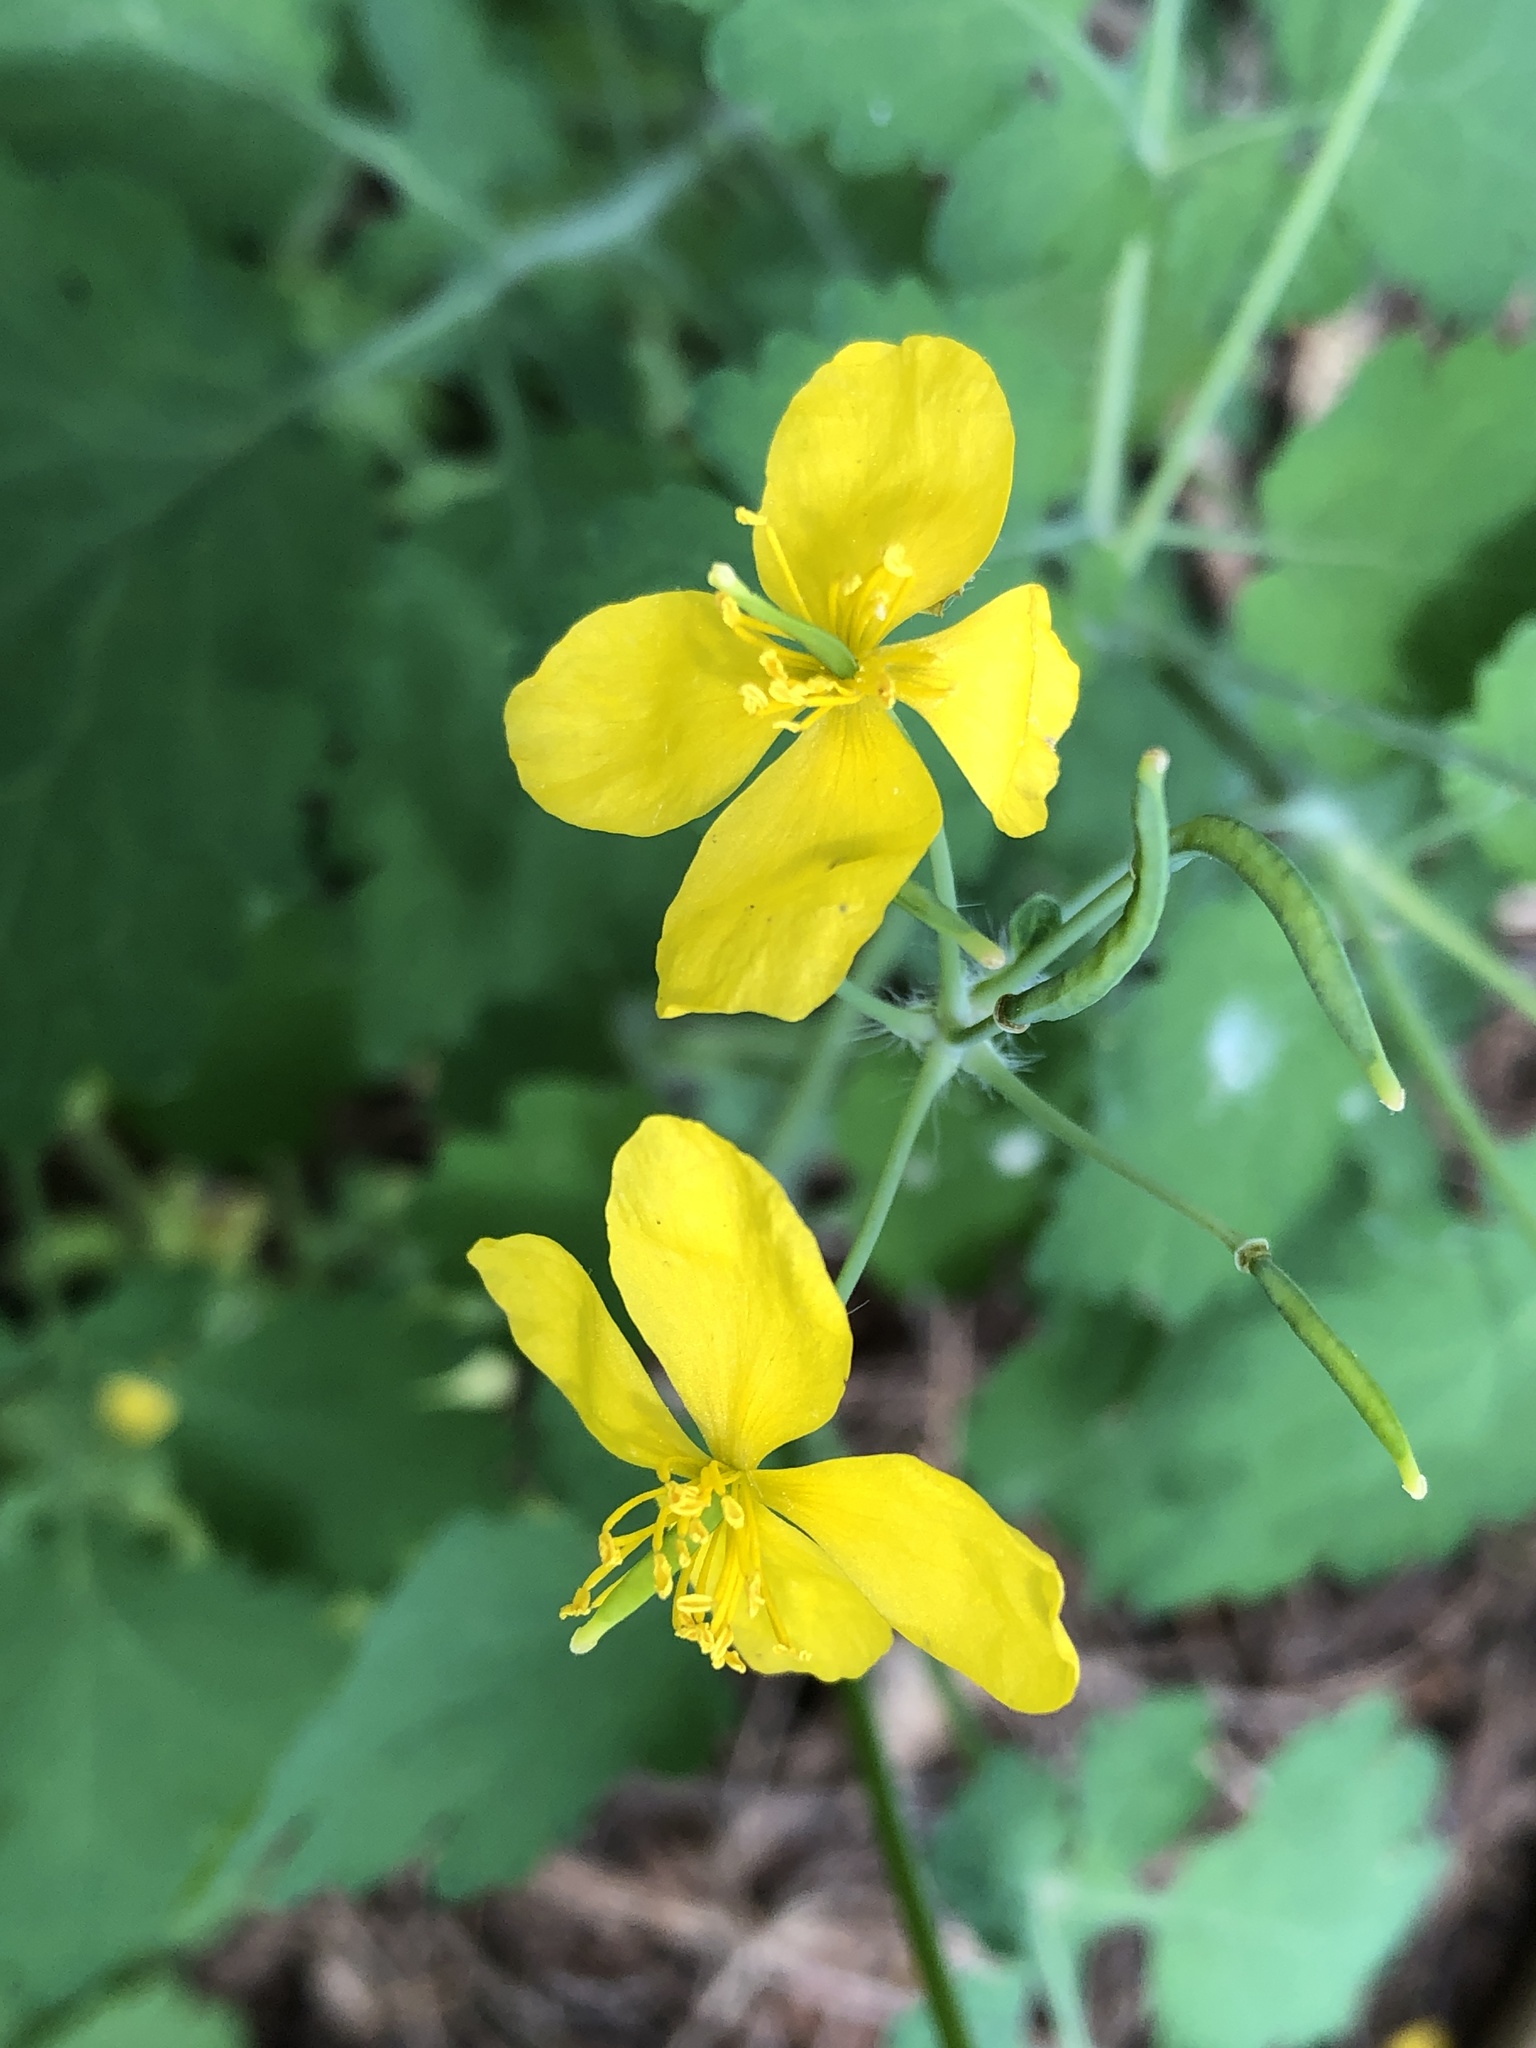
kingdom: Plantae
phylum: Tracheophyta
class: Magnoliopsida
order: Ranunculales
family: Papaveraceae
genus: Chelidonium
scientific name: Chelidonium majus
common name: Greater celandine
